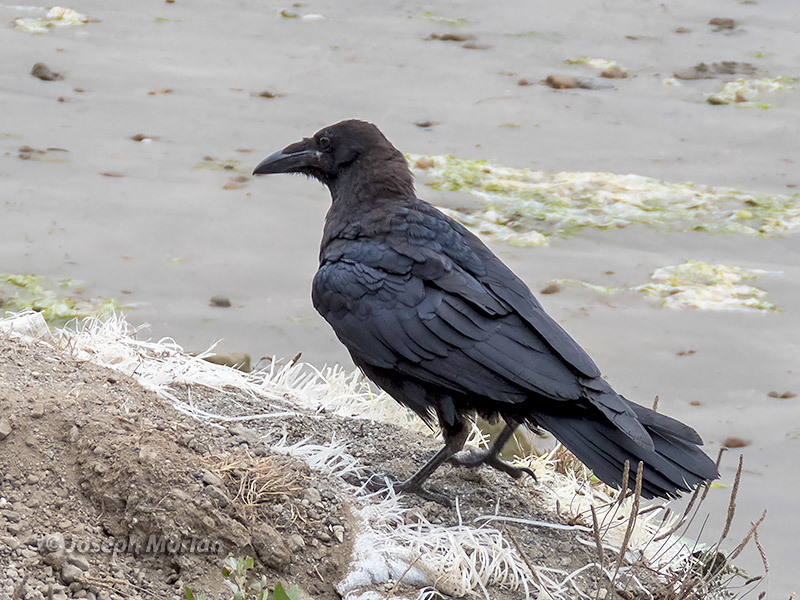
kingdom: Animalia
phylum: Chordata
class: Aves
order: Passeriformes
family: Corvidae
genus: Corvus
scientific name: Corvus corax
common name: Common raven
